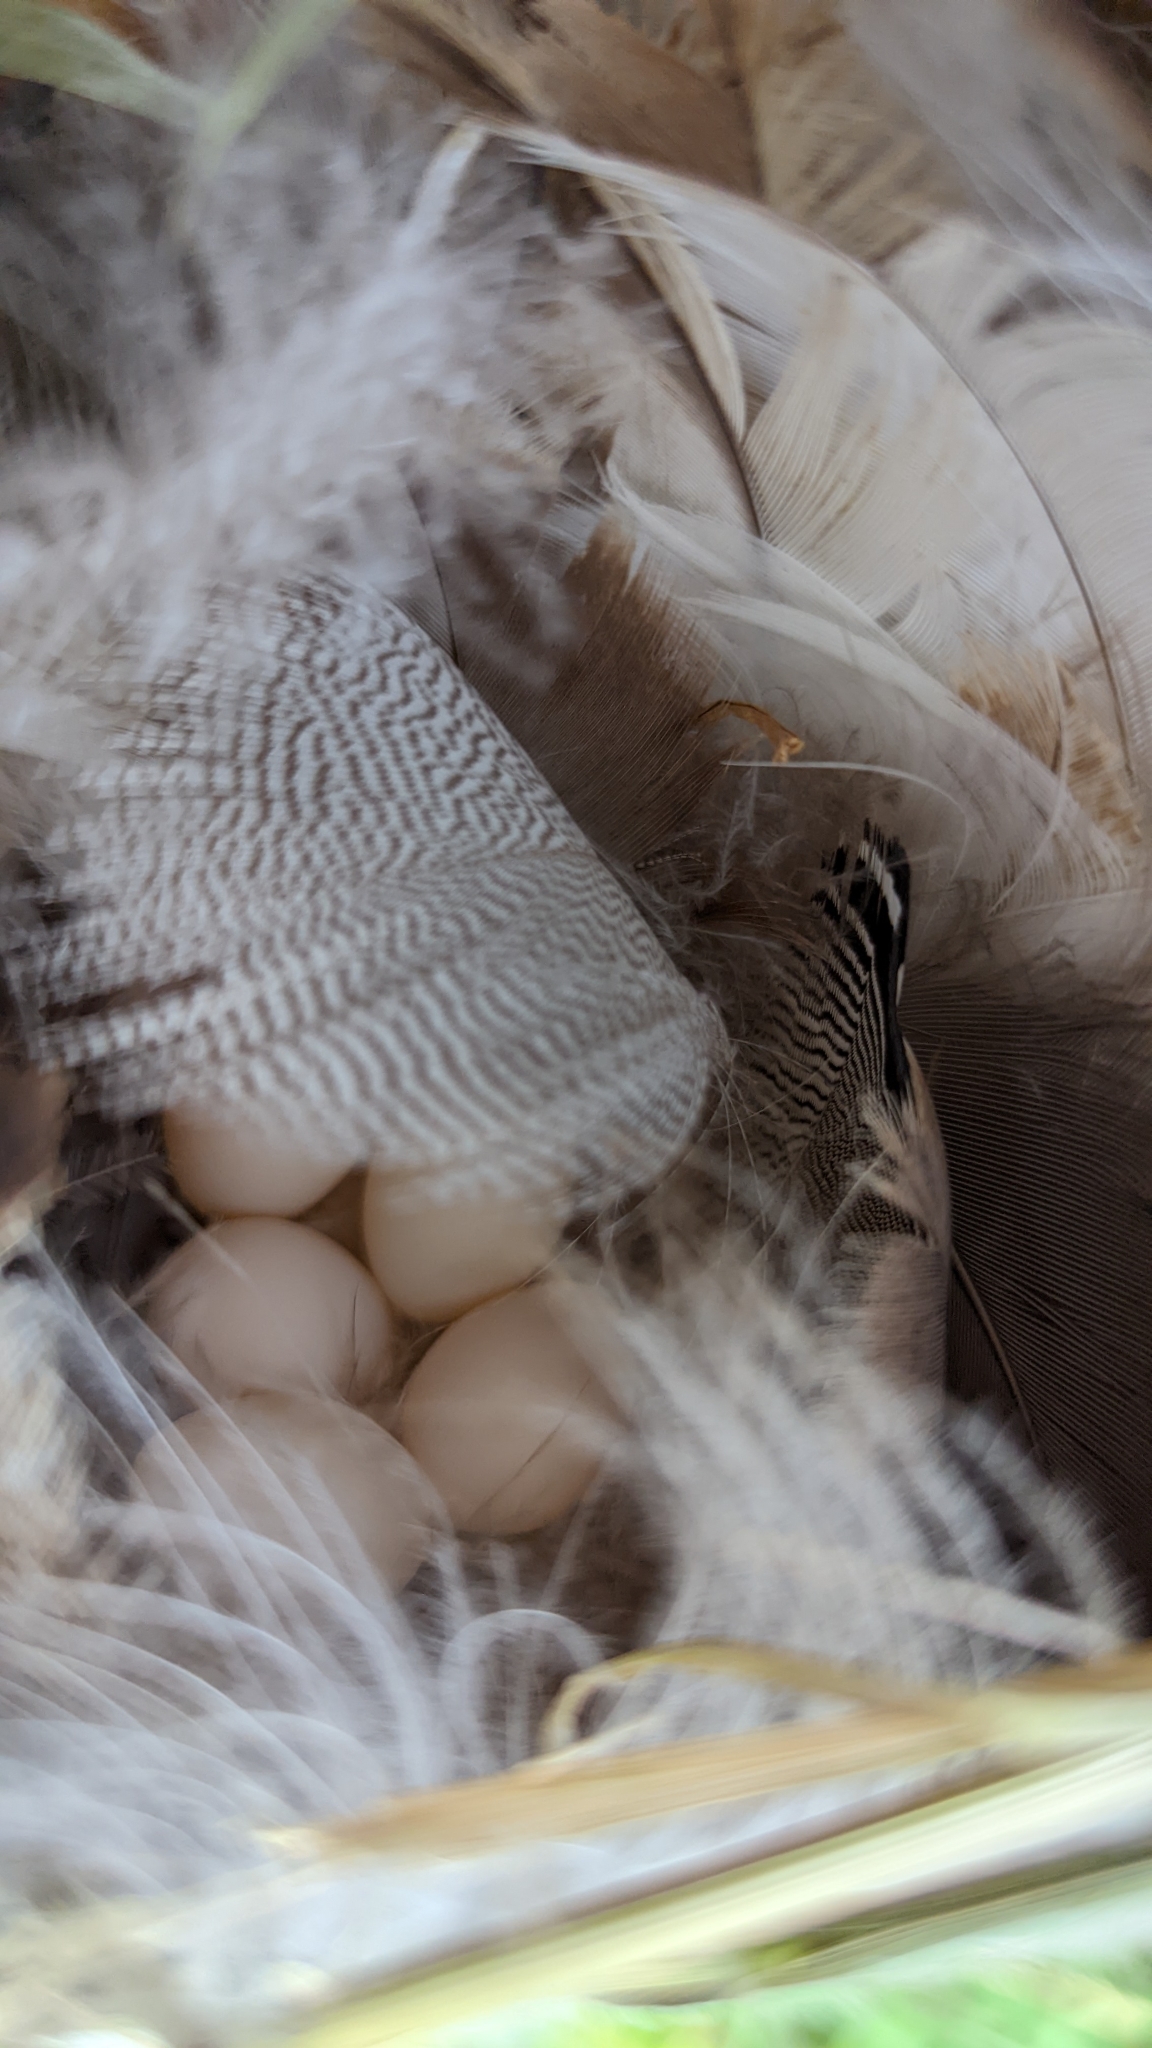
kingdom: Animalia
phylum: Chordata
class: Aves
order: Passeriformes
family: Hirundinidae
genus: Tachycineta
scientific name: Tachycineta bicolor
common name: Tree swallow
